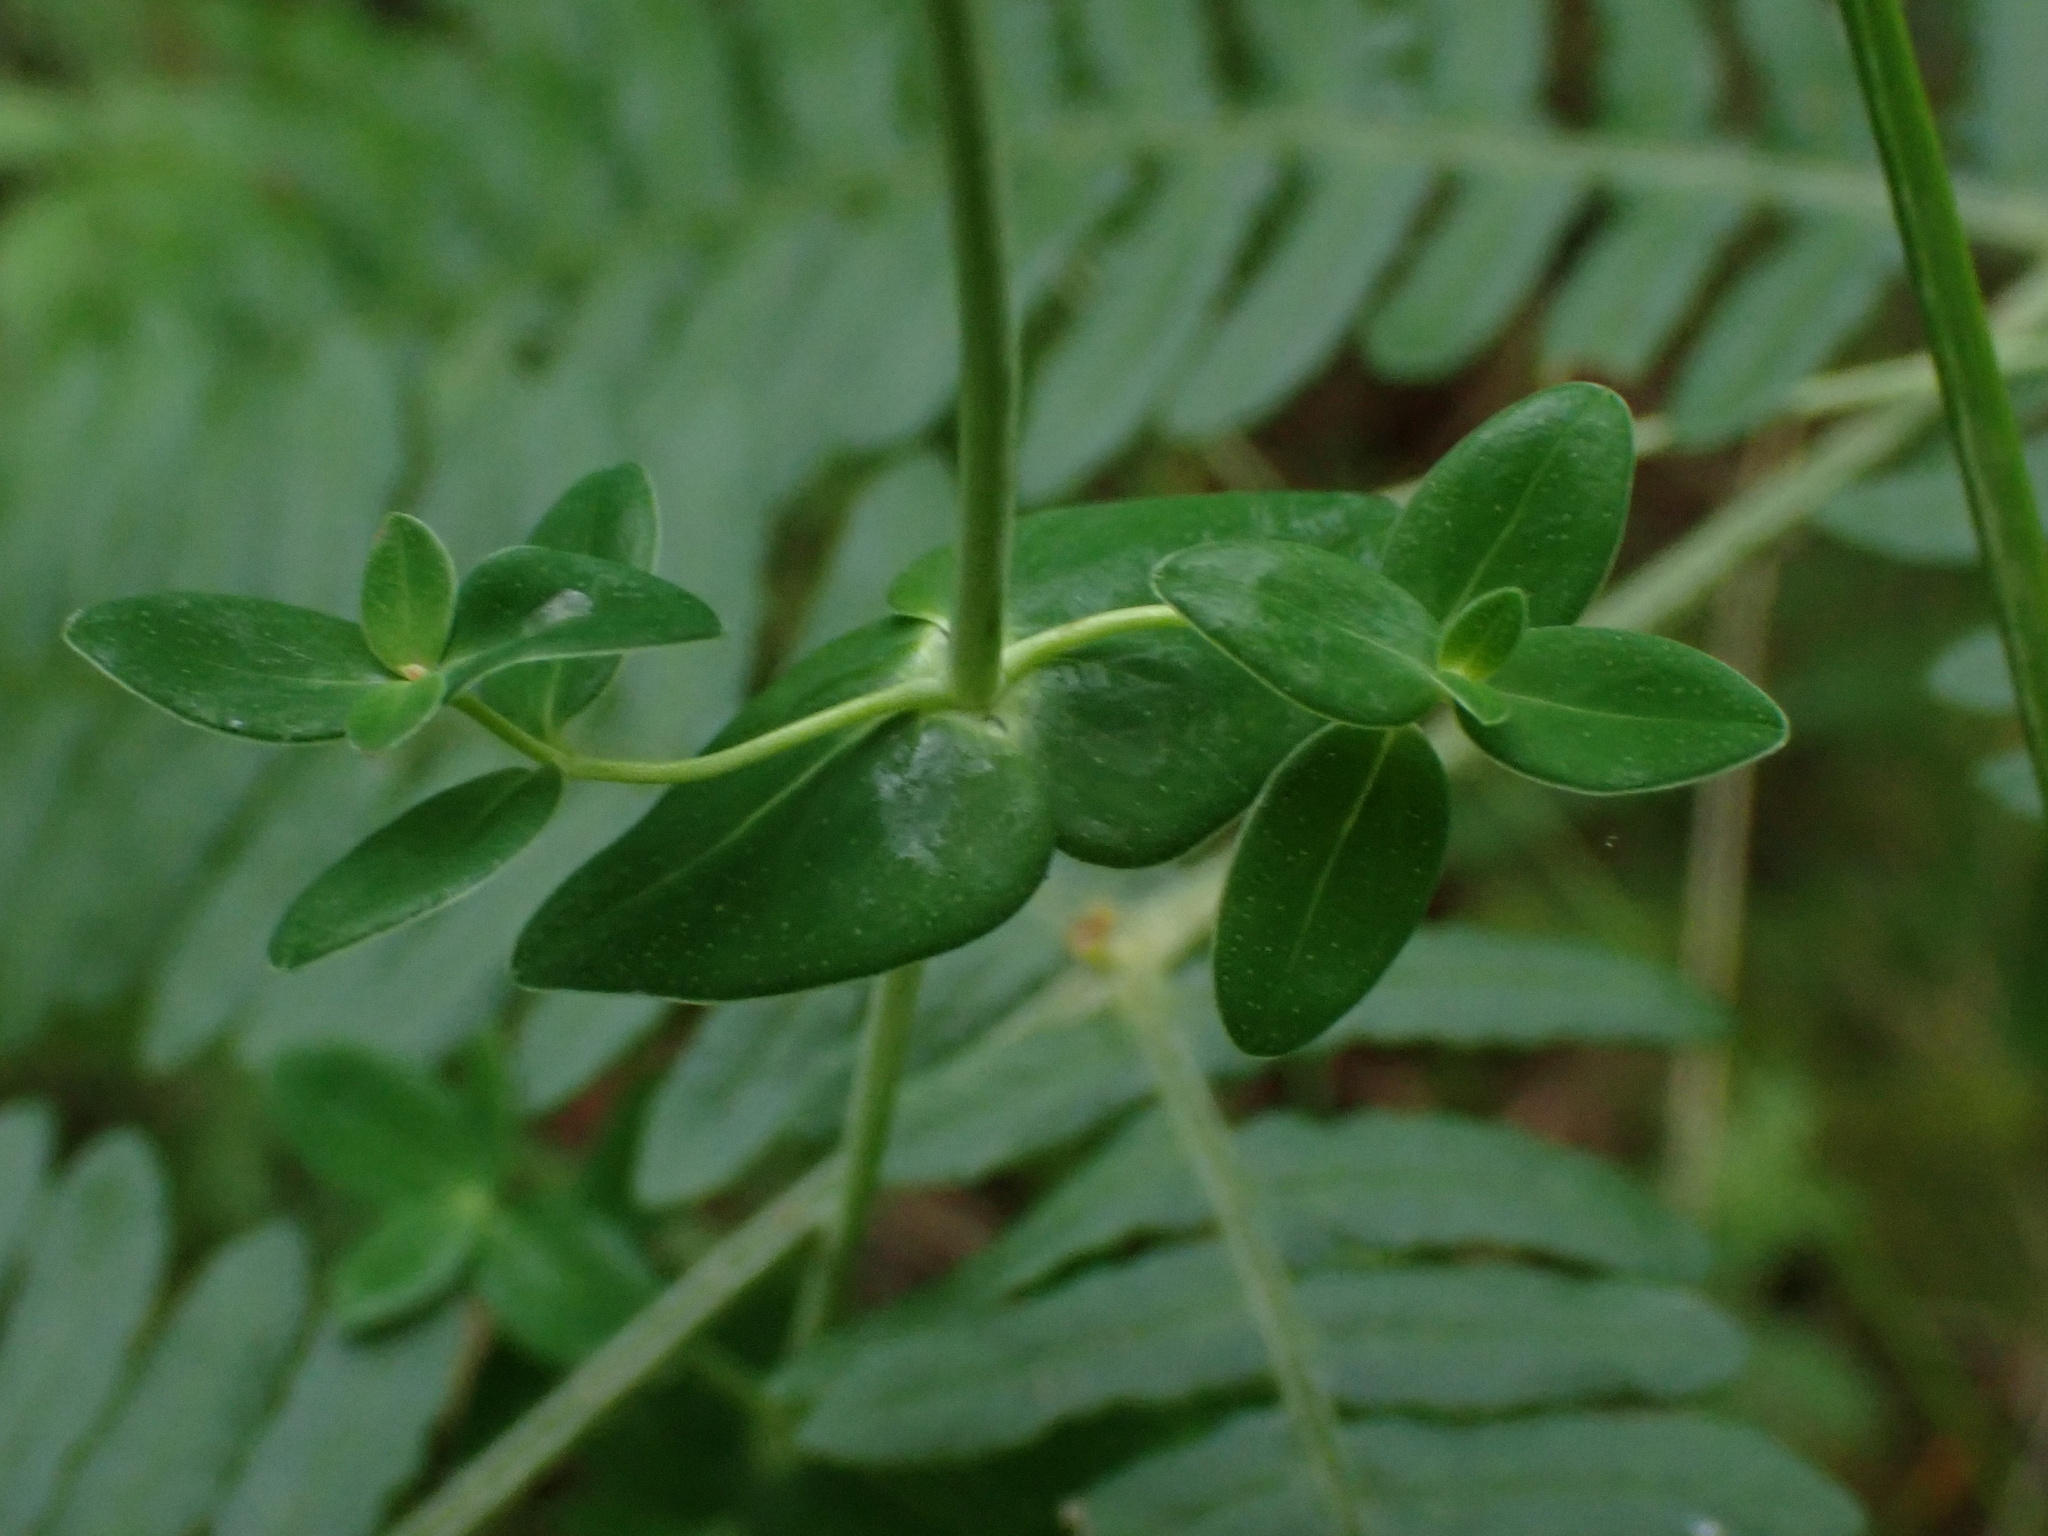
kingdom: Plantae
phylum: Tracheophyta
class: Magnoliopsida
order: Malpighiales
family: Hypericaceae
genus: Hypericum
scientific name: Hypericum pulchrum
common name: Slender st. john's-wort
